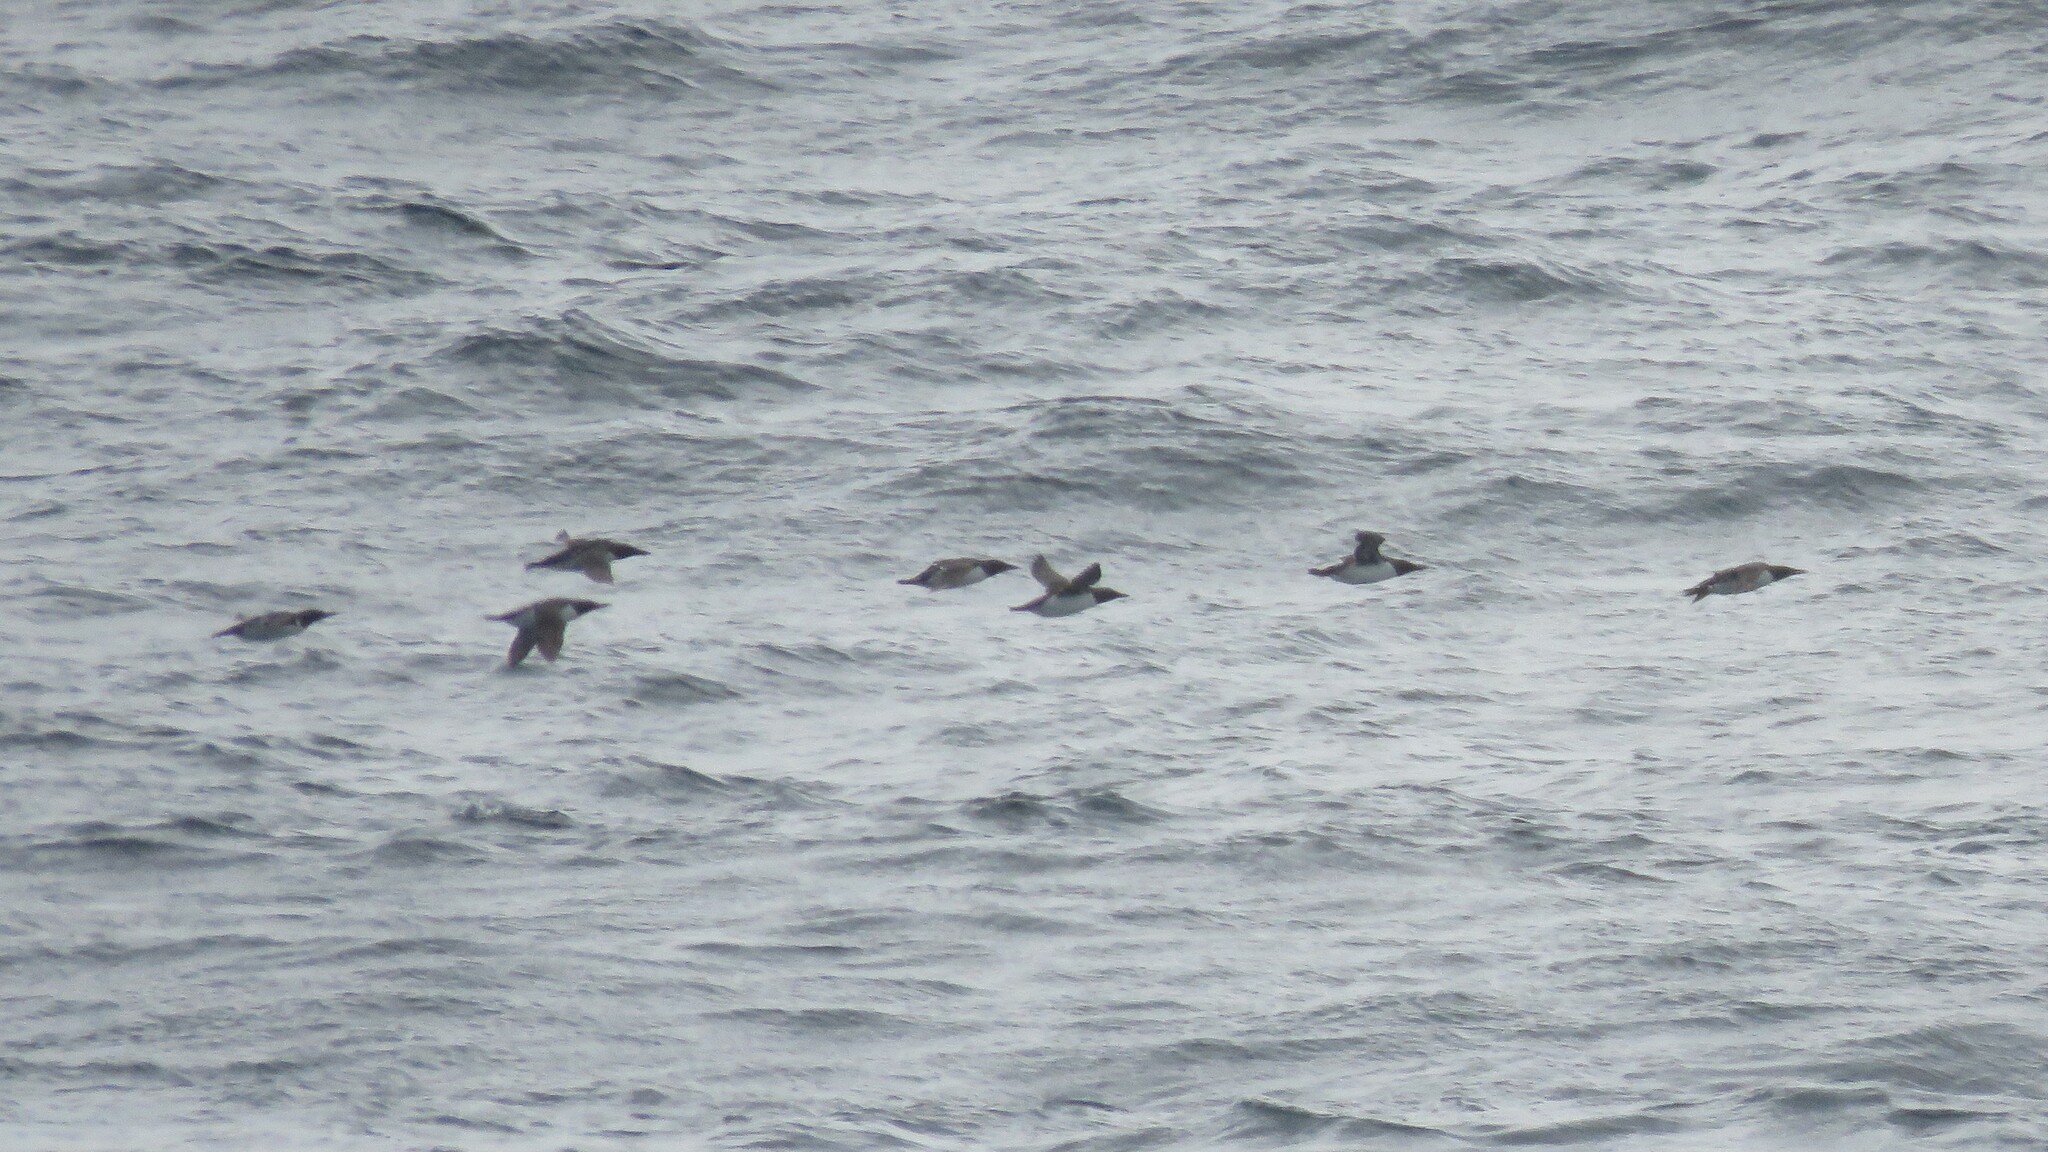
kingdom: Animalia
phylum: Chordata
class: Aves
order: Charadriiformes
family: Alcidae
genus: Uria
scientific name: Uria aalge
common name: Common murre
